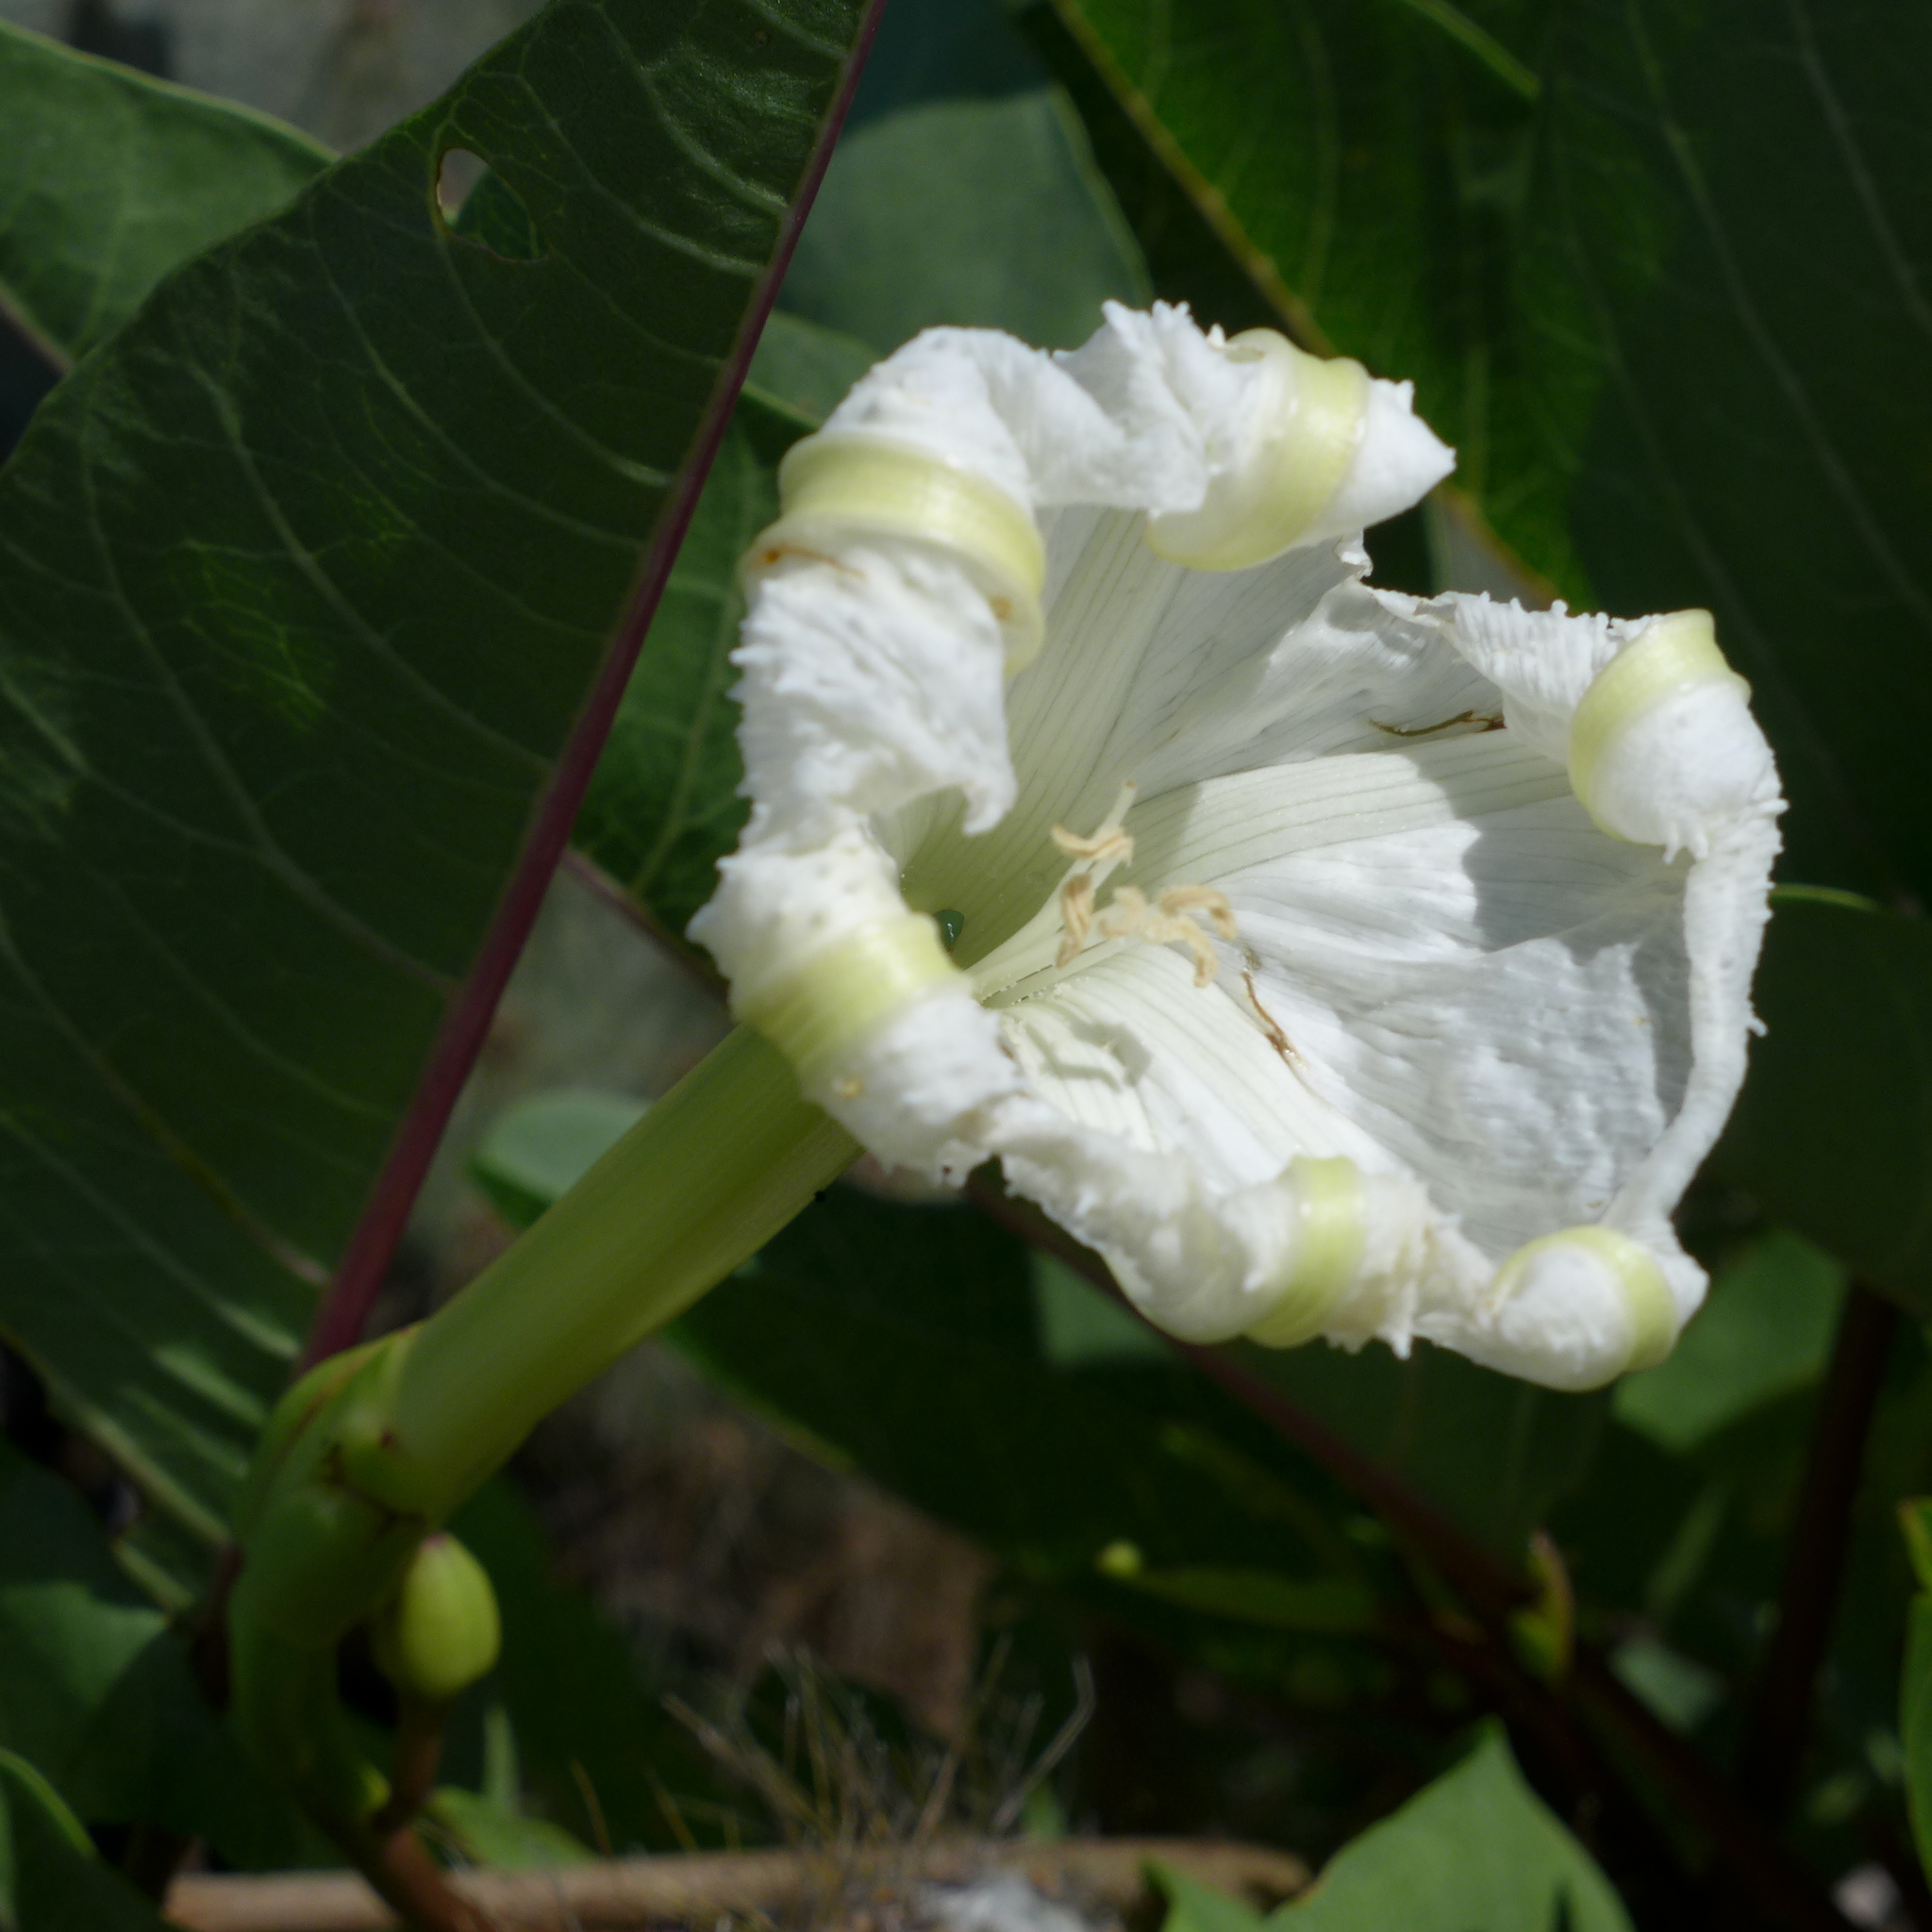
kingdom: Plantae
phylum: Tracheophyta
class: Magnoliopsida
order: Solanales
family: Convolvulaceae
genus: Ipomoea
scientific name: Ipomoea habeliana
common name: Lava morning glory
